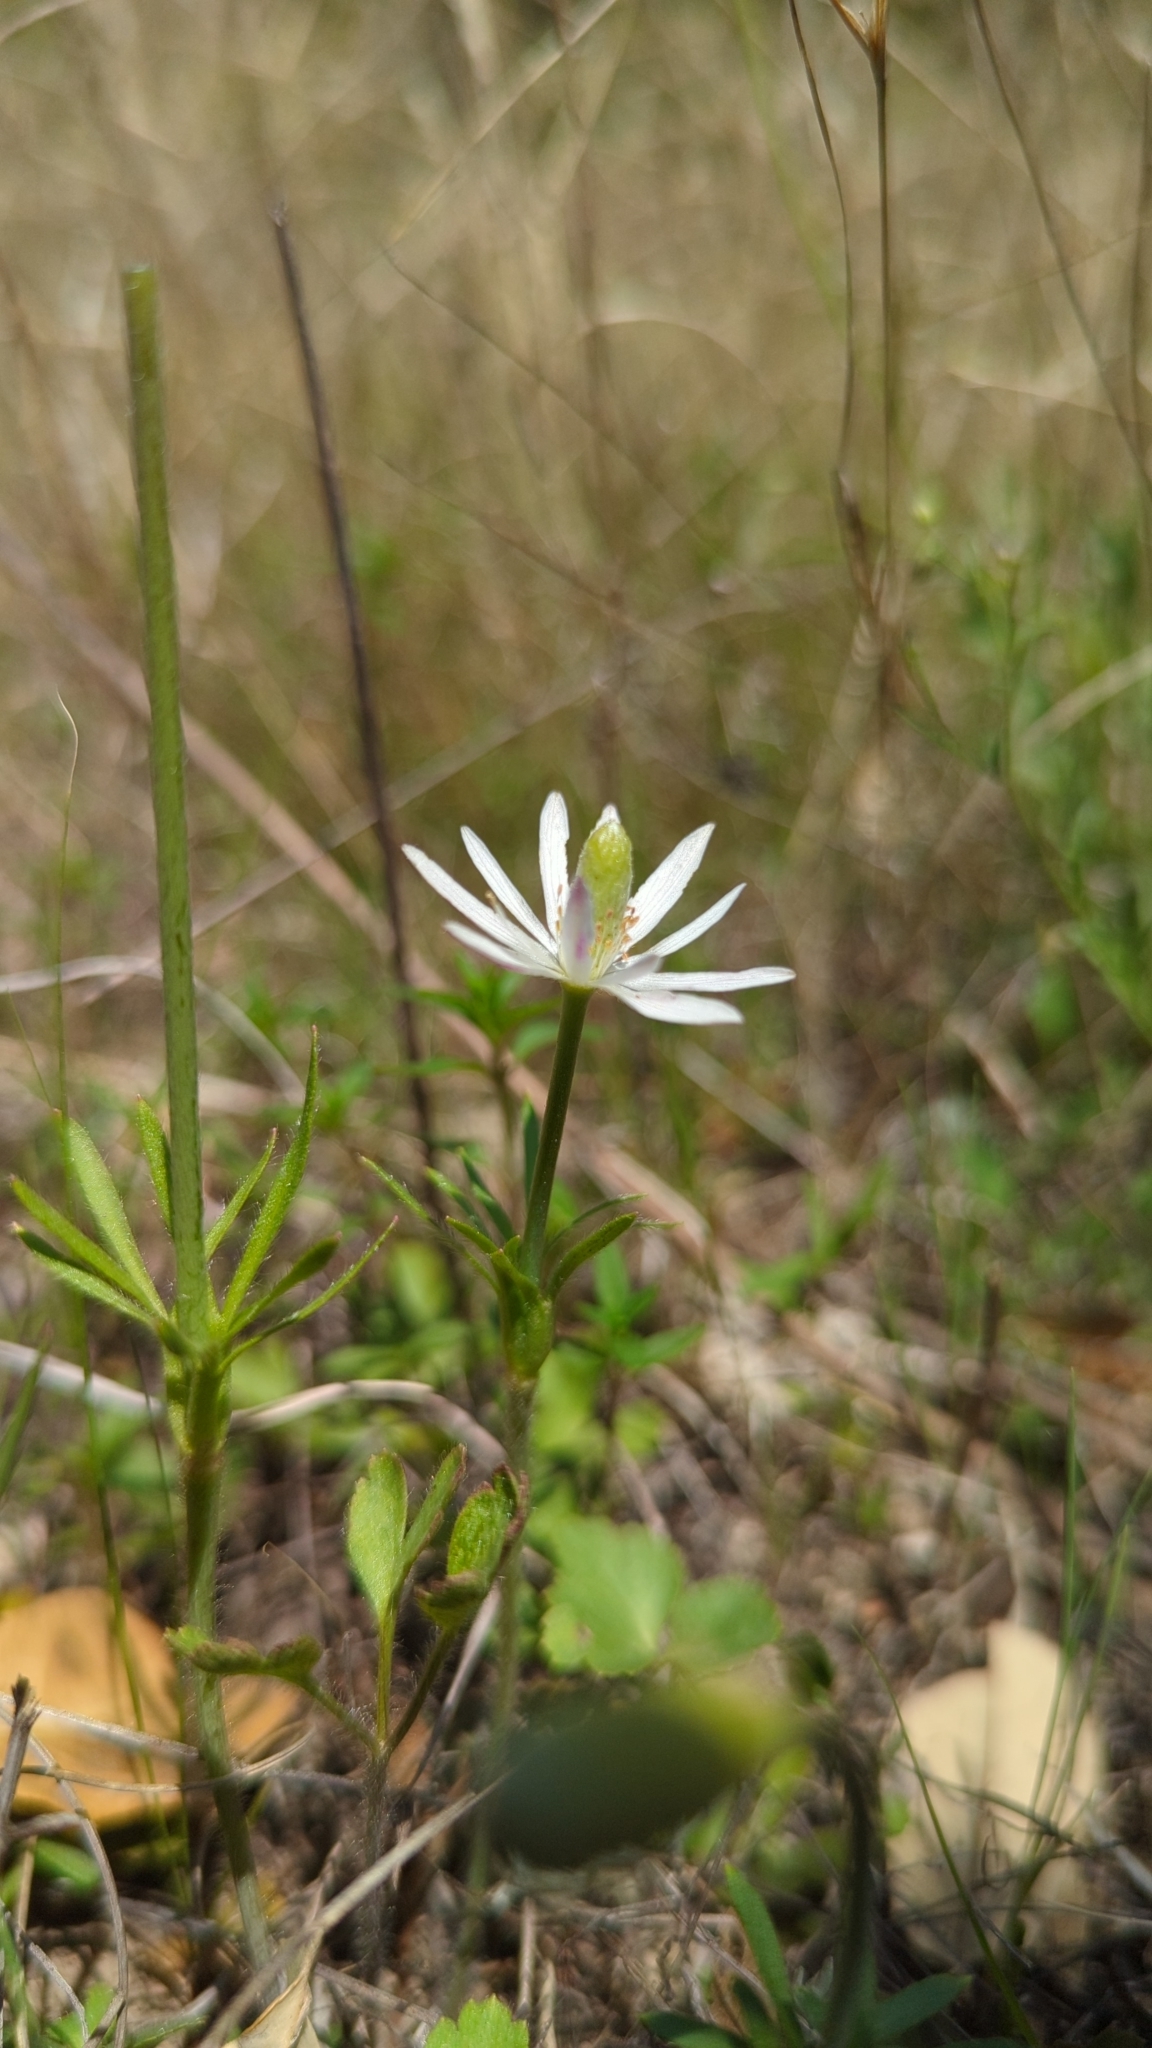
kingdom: Plantae
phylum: Tracheophyta
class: Magnoliopsida
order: Ranunculales
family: Ranunculaceae
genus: Anemone
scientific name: Anemone berlandieri
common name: Ten-petal anemone
